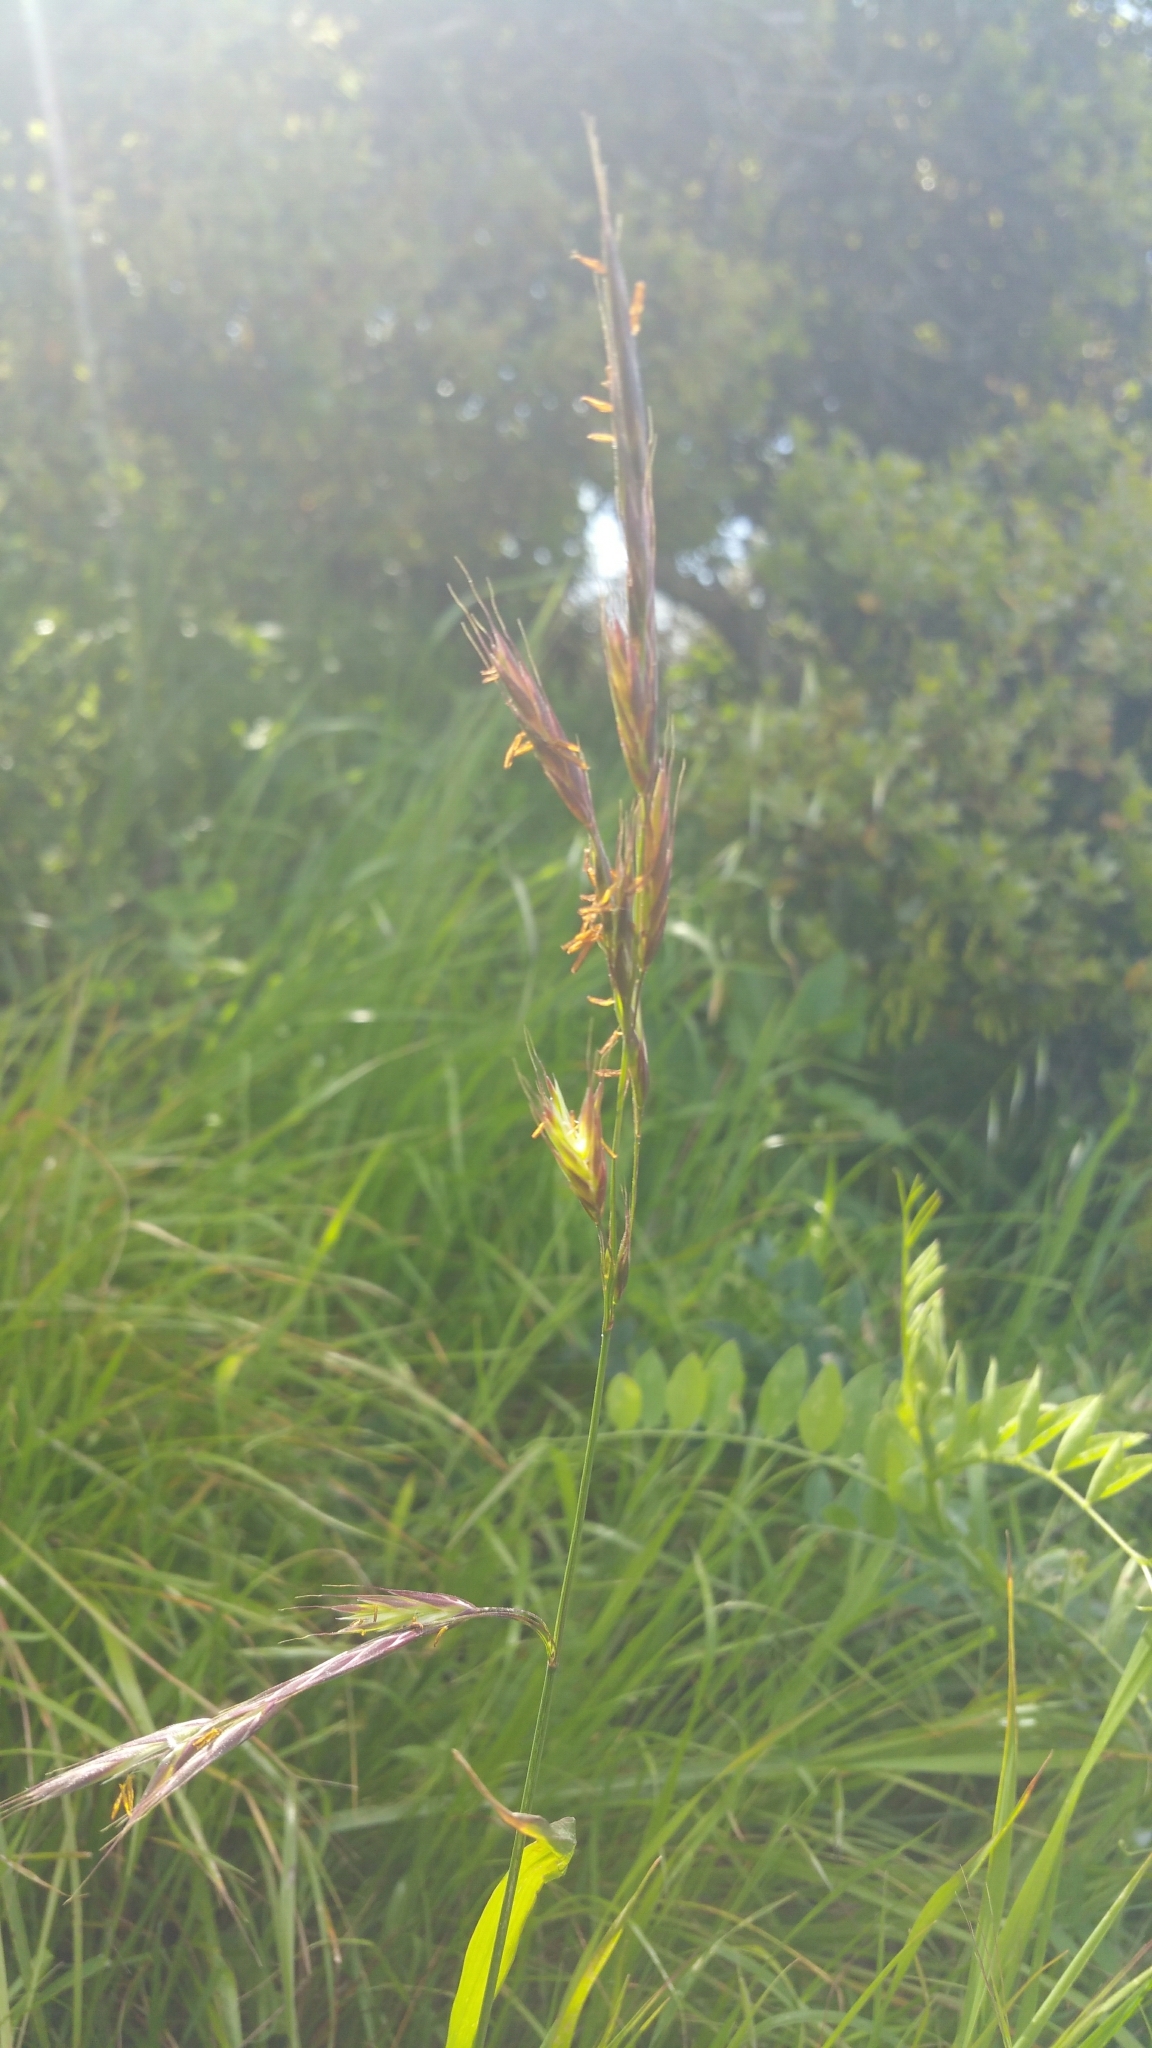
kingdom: Plantae
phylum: Tracheophyta
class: Liliopsida
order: Poales
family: Poaceae
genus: Bromus
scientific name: Bromus carinatus
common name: Mountain brome
